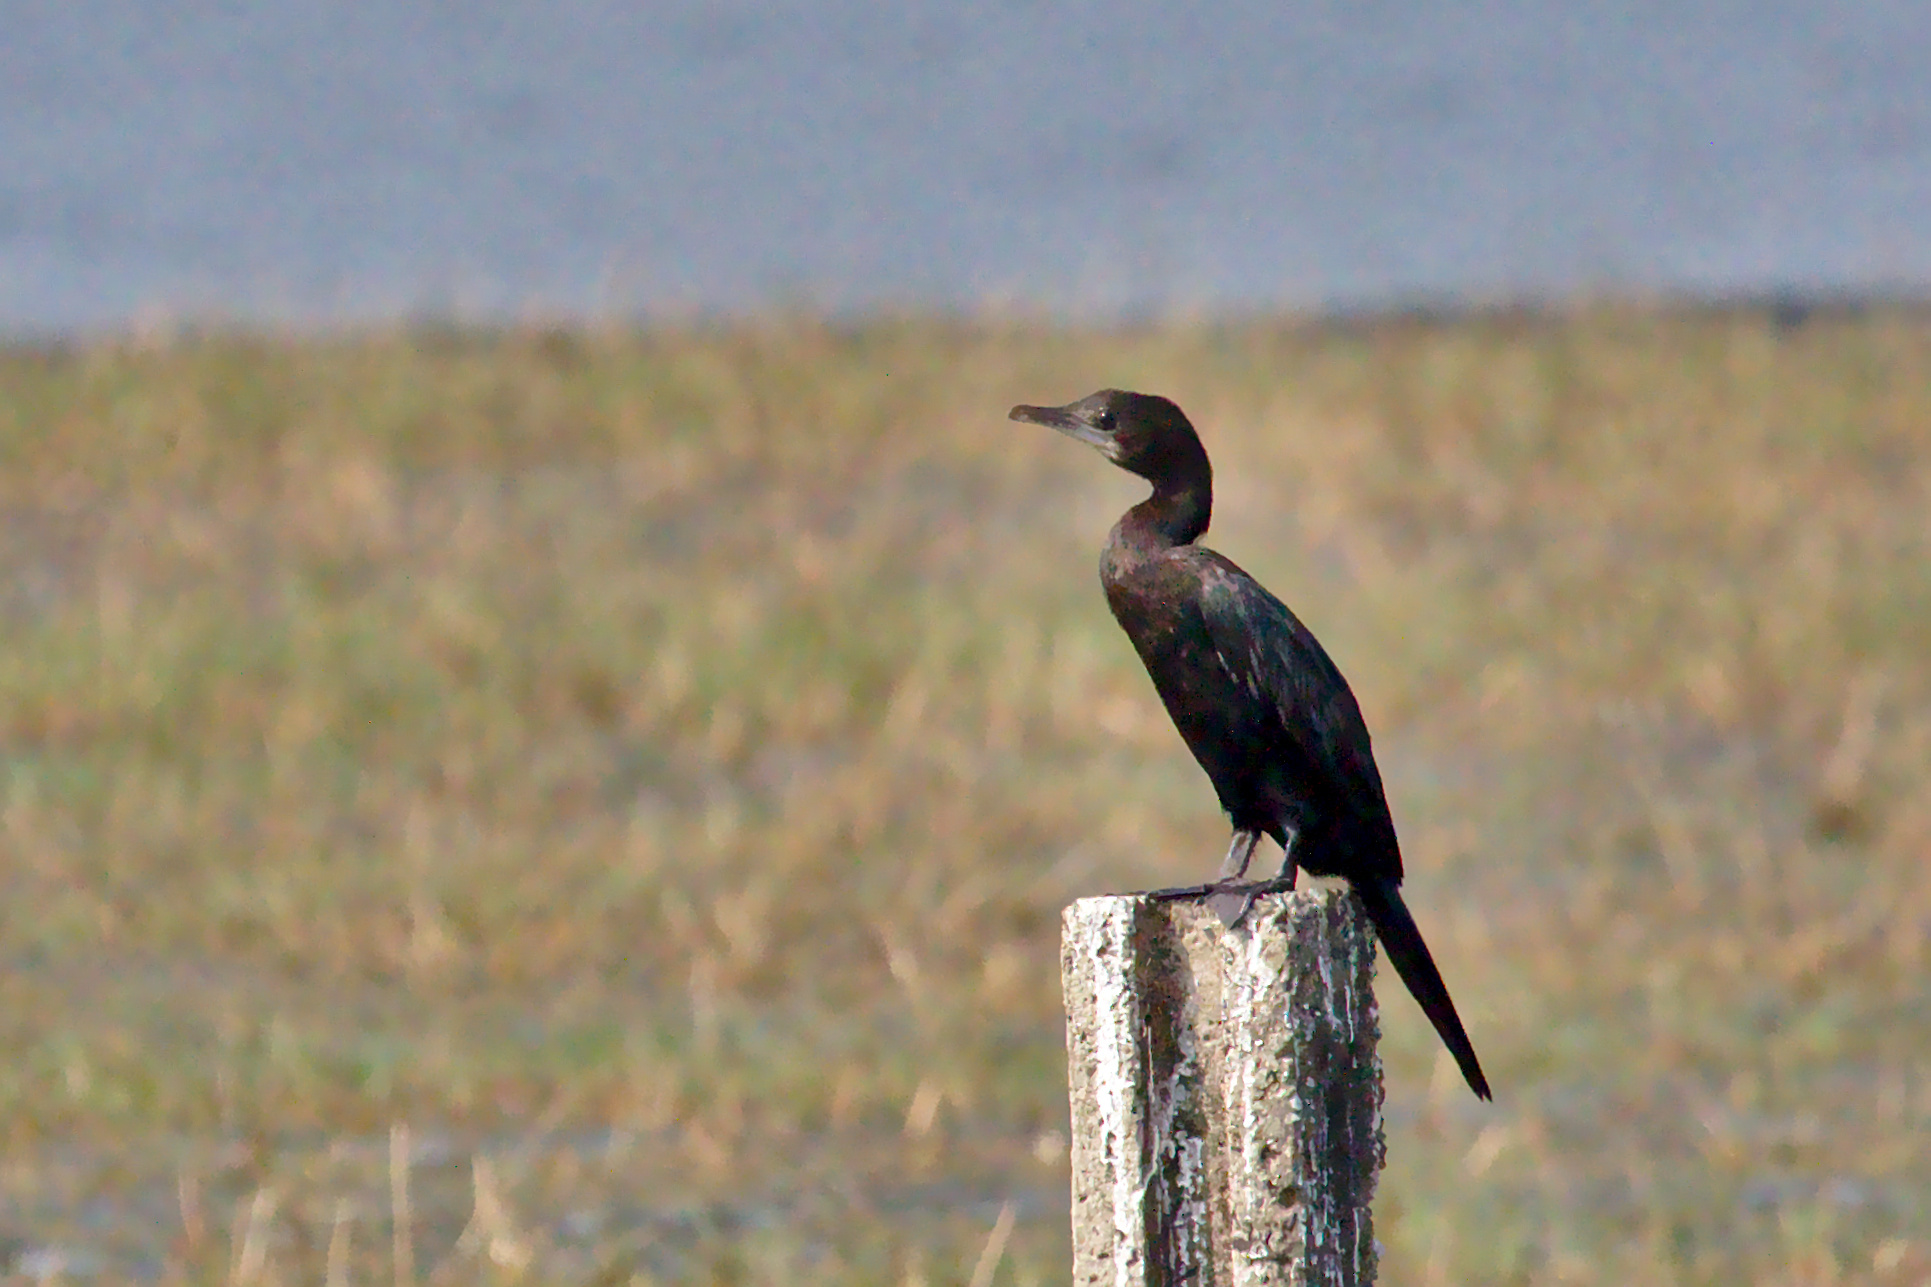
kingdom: Animalia
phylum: Chordata
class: Aves
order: Suliformes
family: Phalacrocoracidae
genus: Microcarbo
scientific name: Microcarbo niger
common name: Little cormorant
